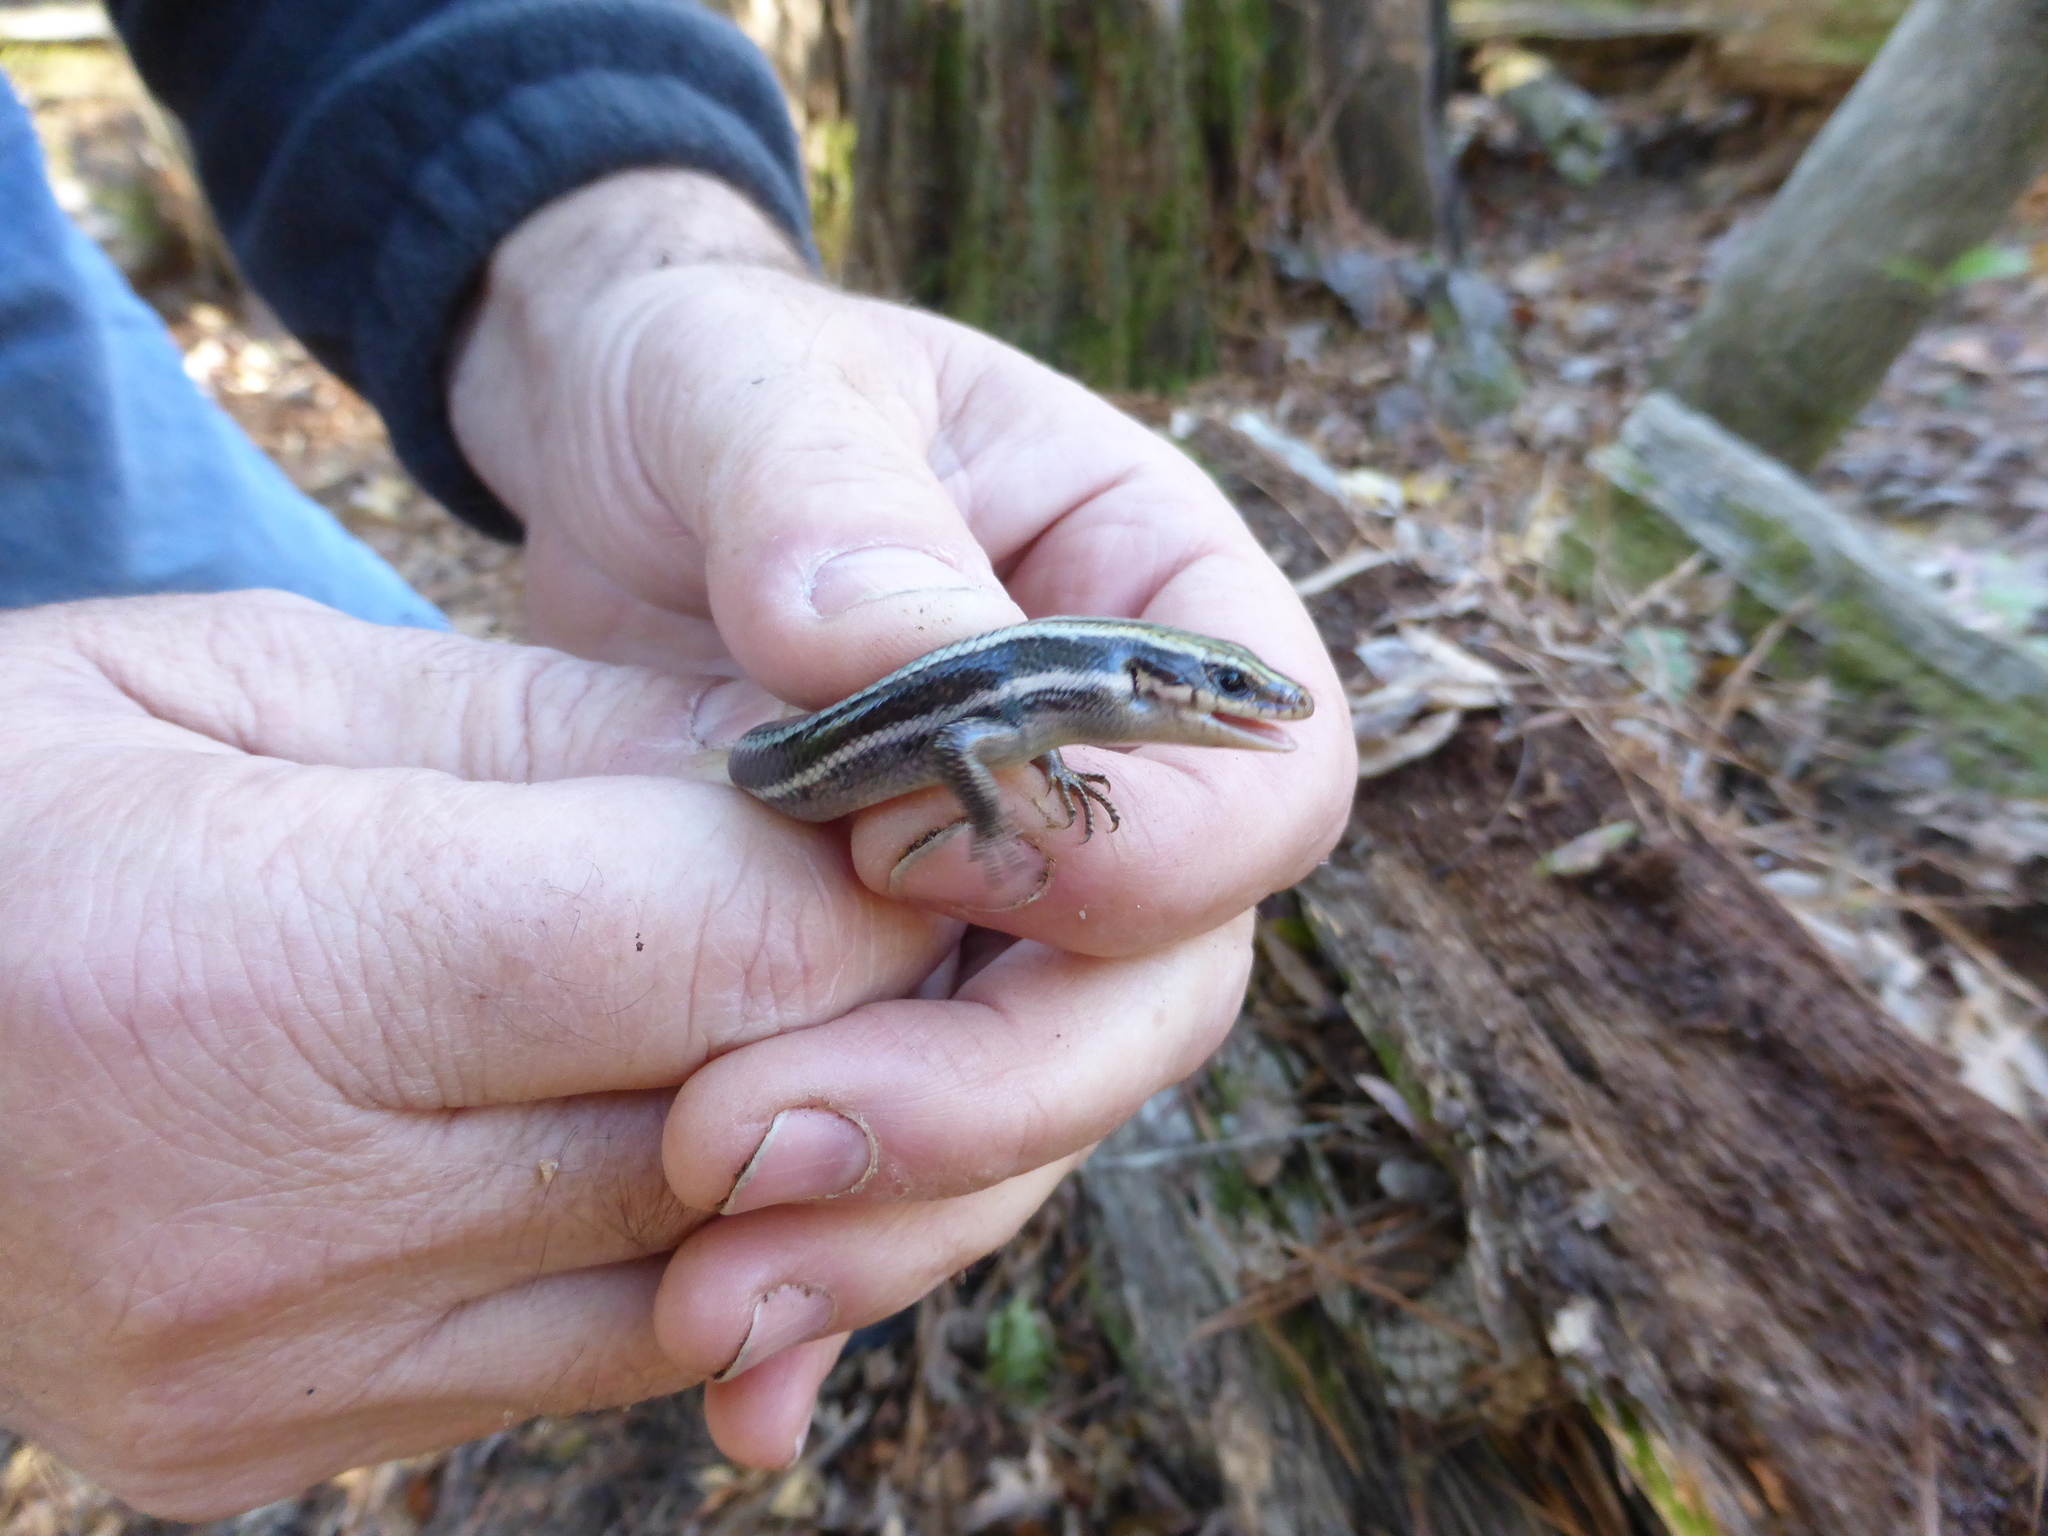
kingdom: Animalia
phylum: Chordata
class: Squamata
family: Scincidae
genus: Plestiodon
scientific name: Plestiodon fasciatus
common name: Five-lined skink
